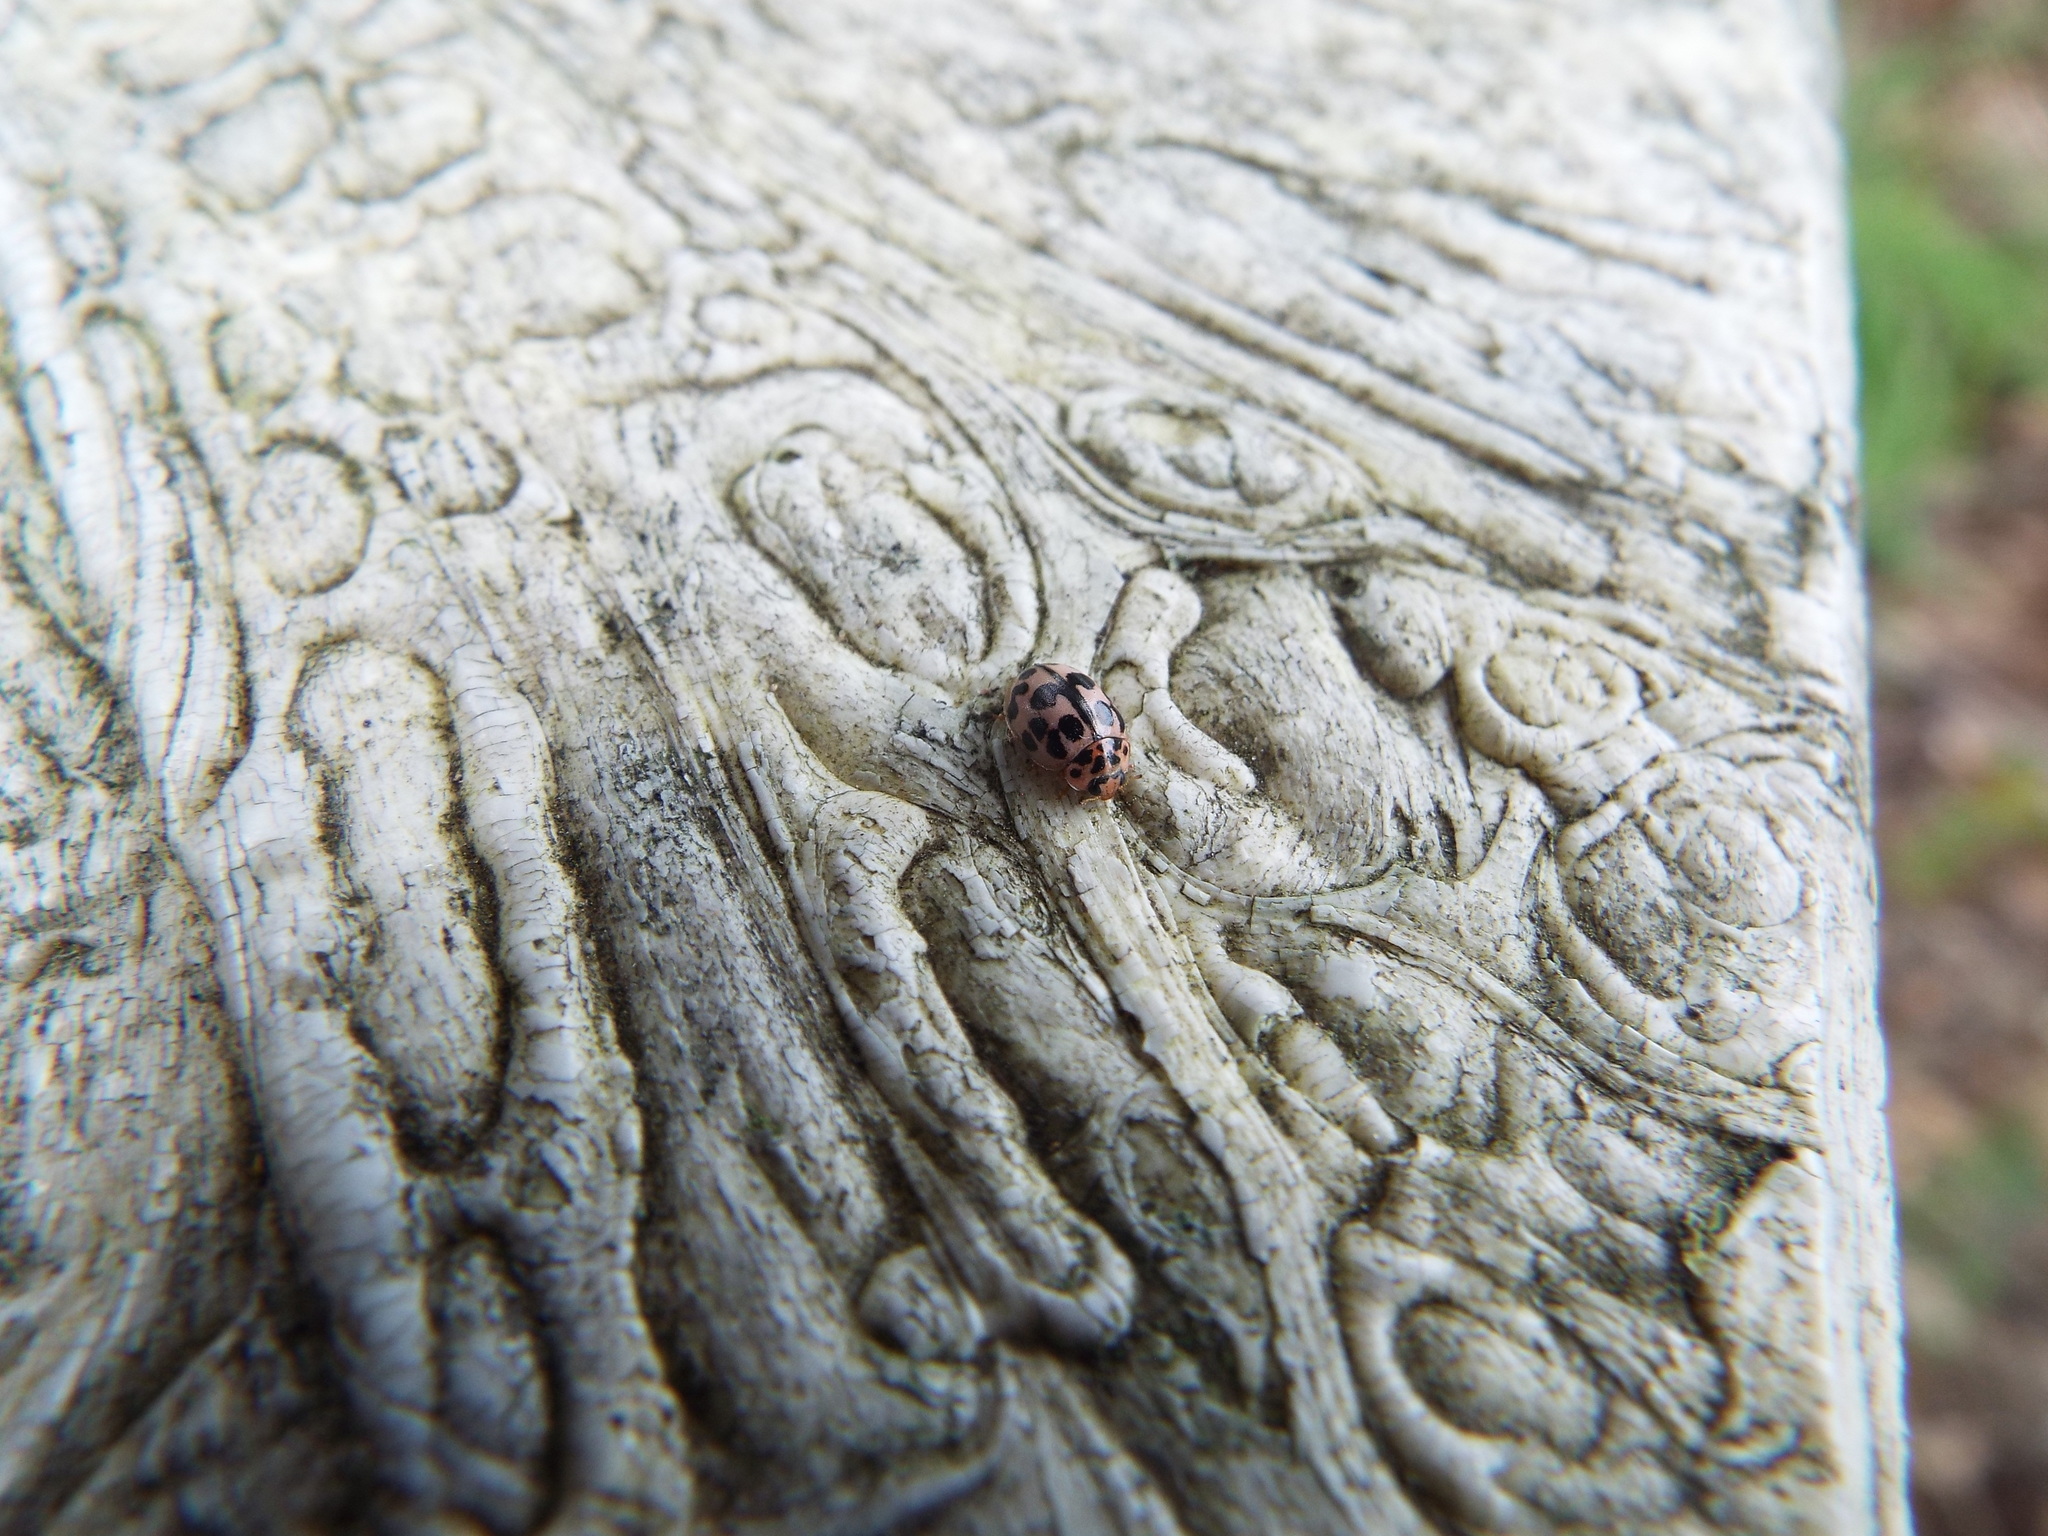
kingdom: Animalia
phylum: Arthropoda
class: Insecta
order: Coleoptera
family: Coccinellidae
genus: Oenopia
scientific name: Oenopia conglobata
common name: Ladybird beetle
